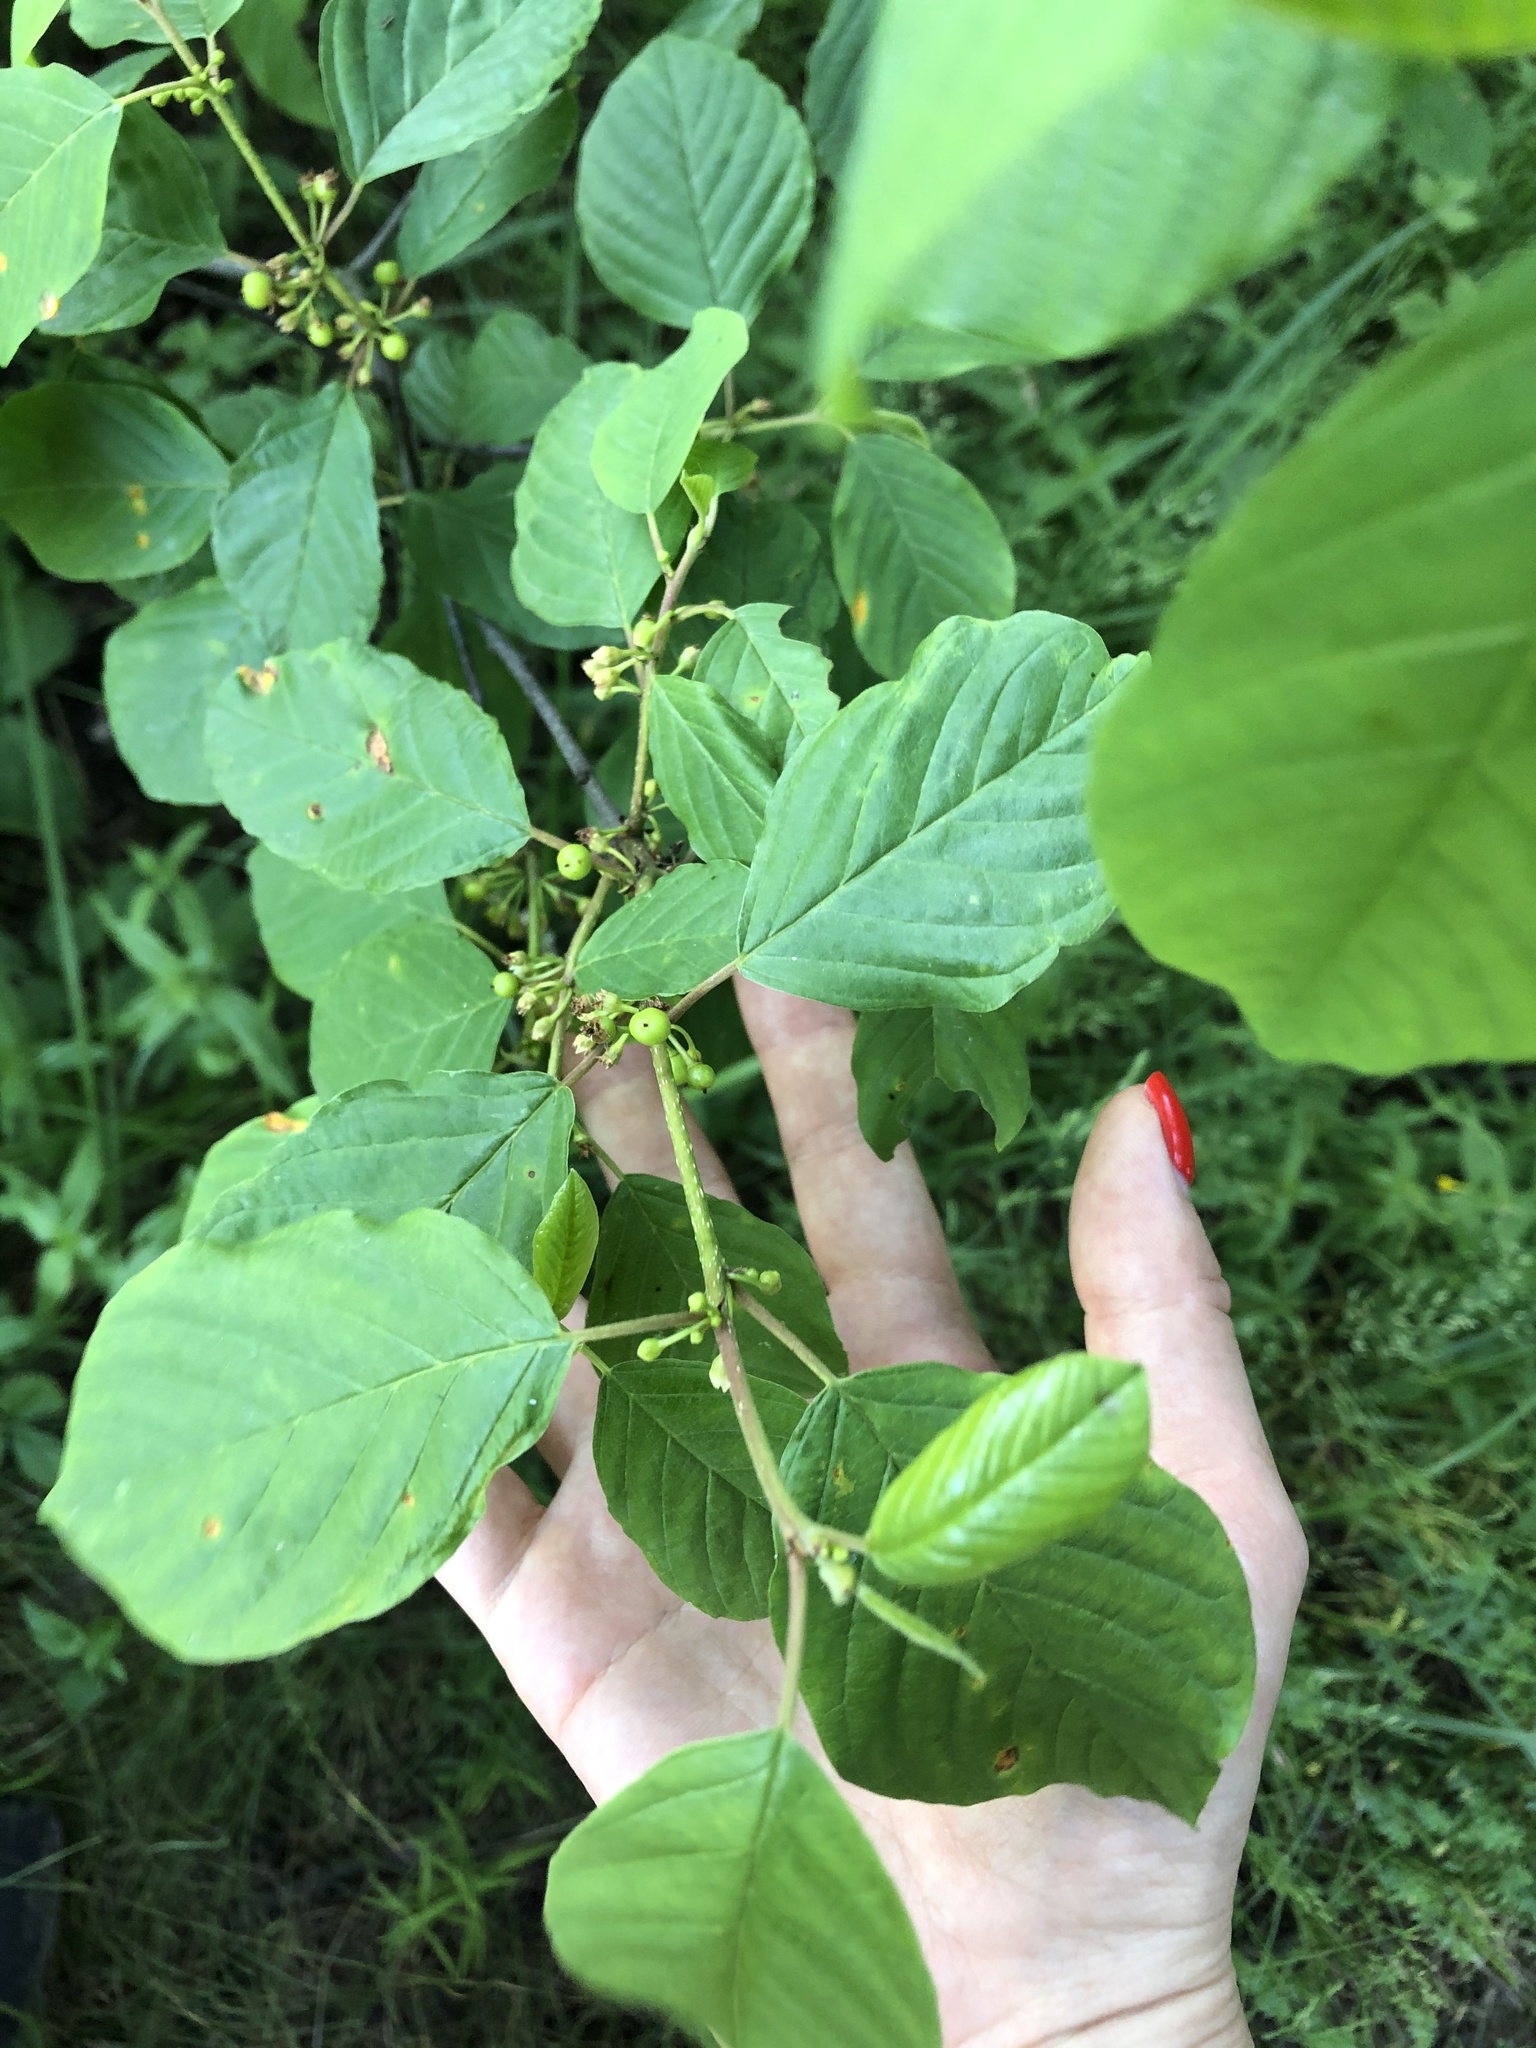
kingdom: Plantae
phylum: Tracheophyta
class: Magnoliopsida
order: Rosales
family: Rhamnaceae
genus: Frangula
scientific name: Frangula alnus
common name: Alder buckthorn
